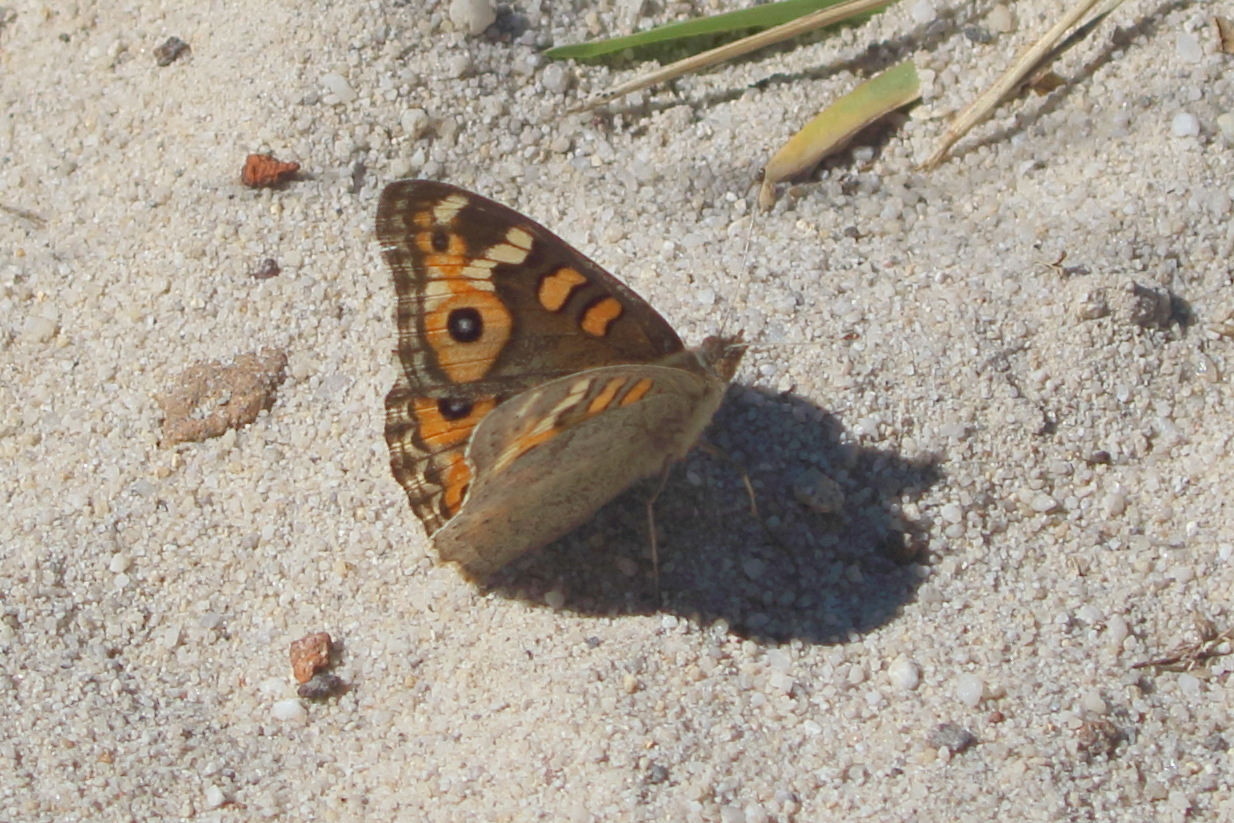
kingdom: Animalia
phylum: Arthropoda
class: Insecta
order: Lepidoptera
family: Nymphalidae
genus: Junonia
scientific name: Junonia villida
